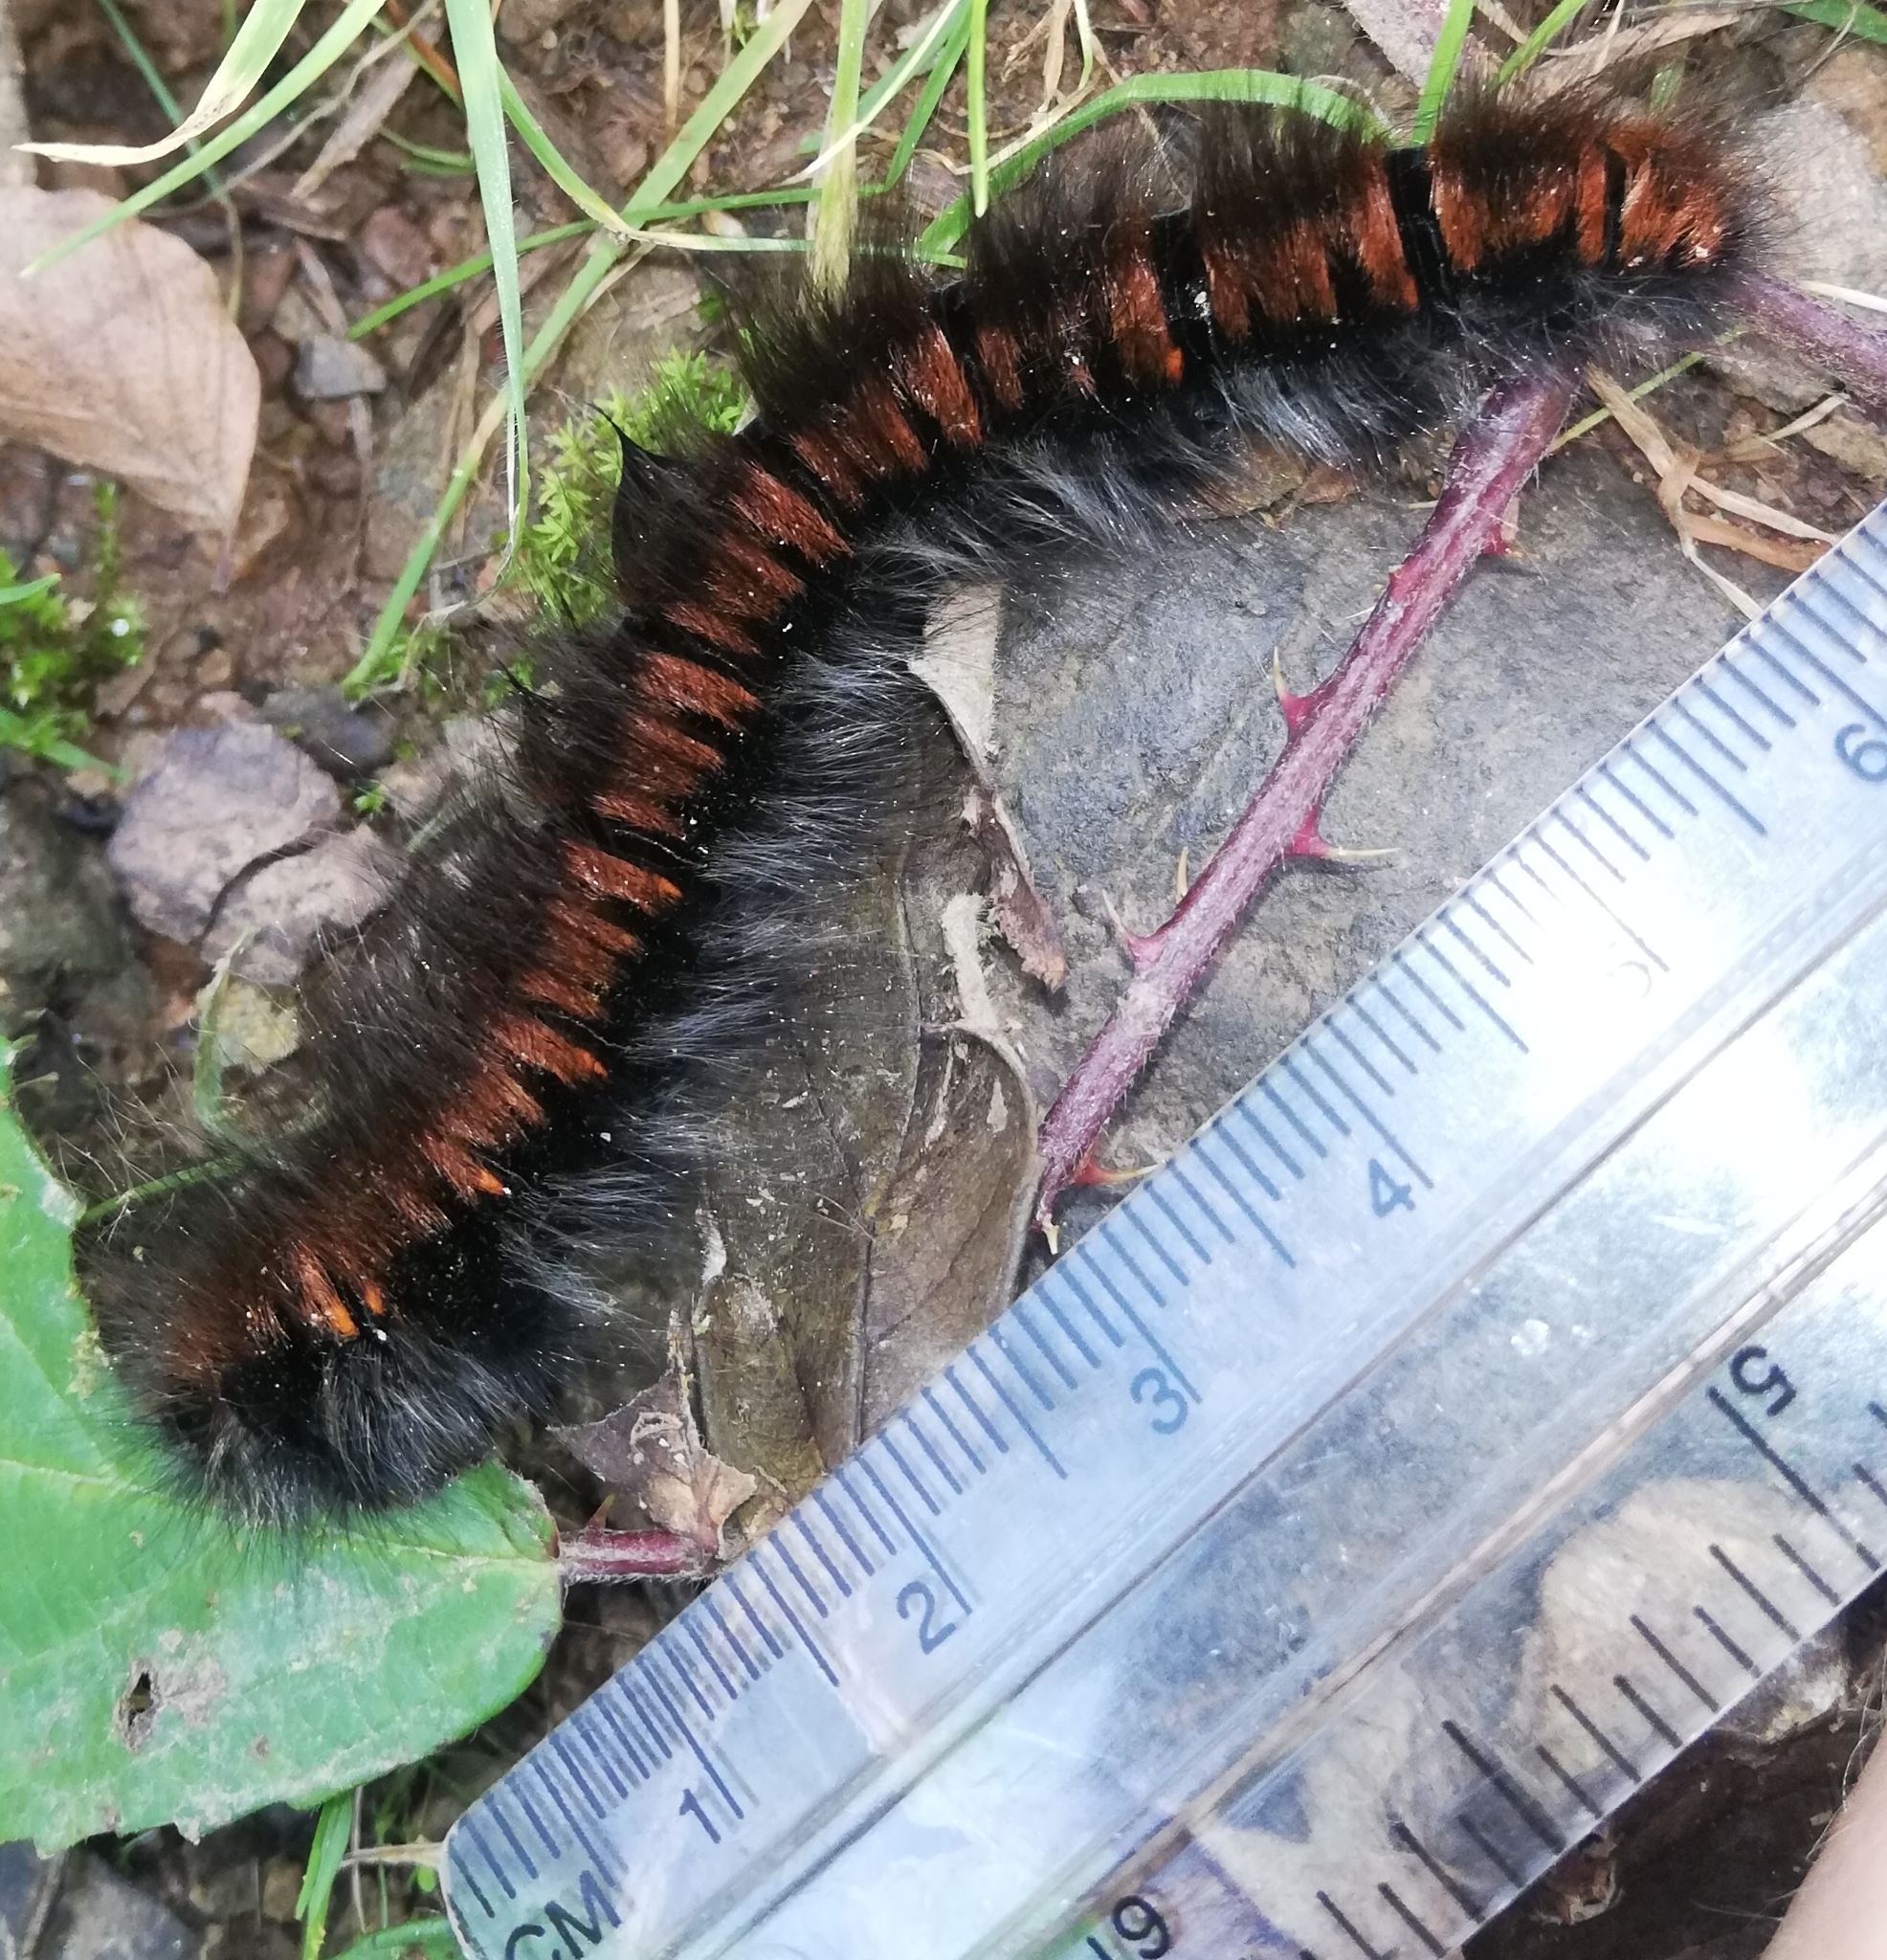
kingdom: Animalia
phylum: Arthropoda
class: Insecta
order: Lepidoptera
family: Lasiocampidae
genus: Macrothylacia
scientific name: Macrothylacia rubi
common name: Fox moth
